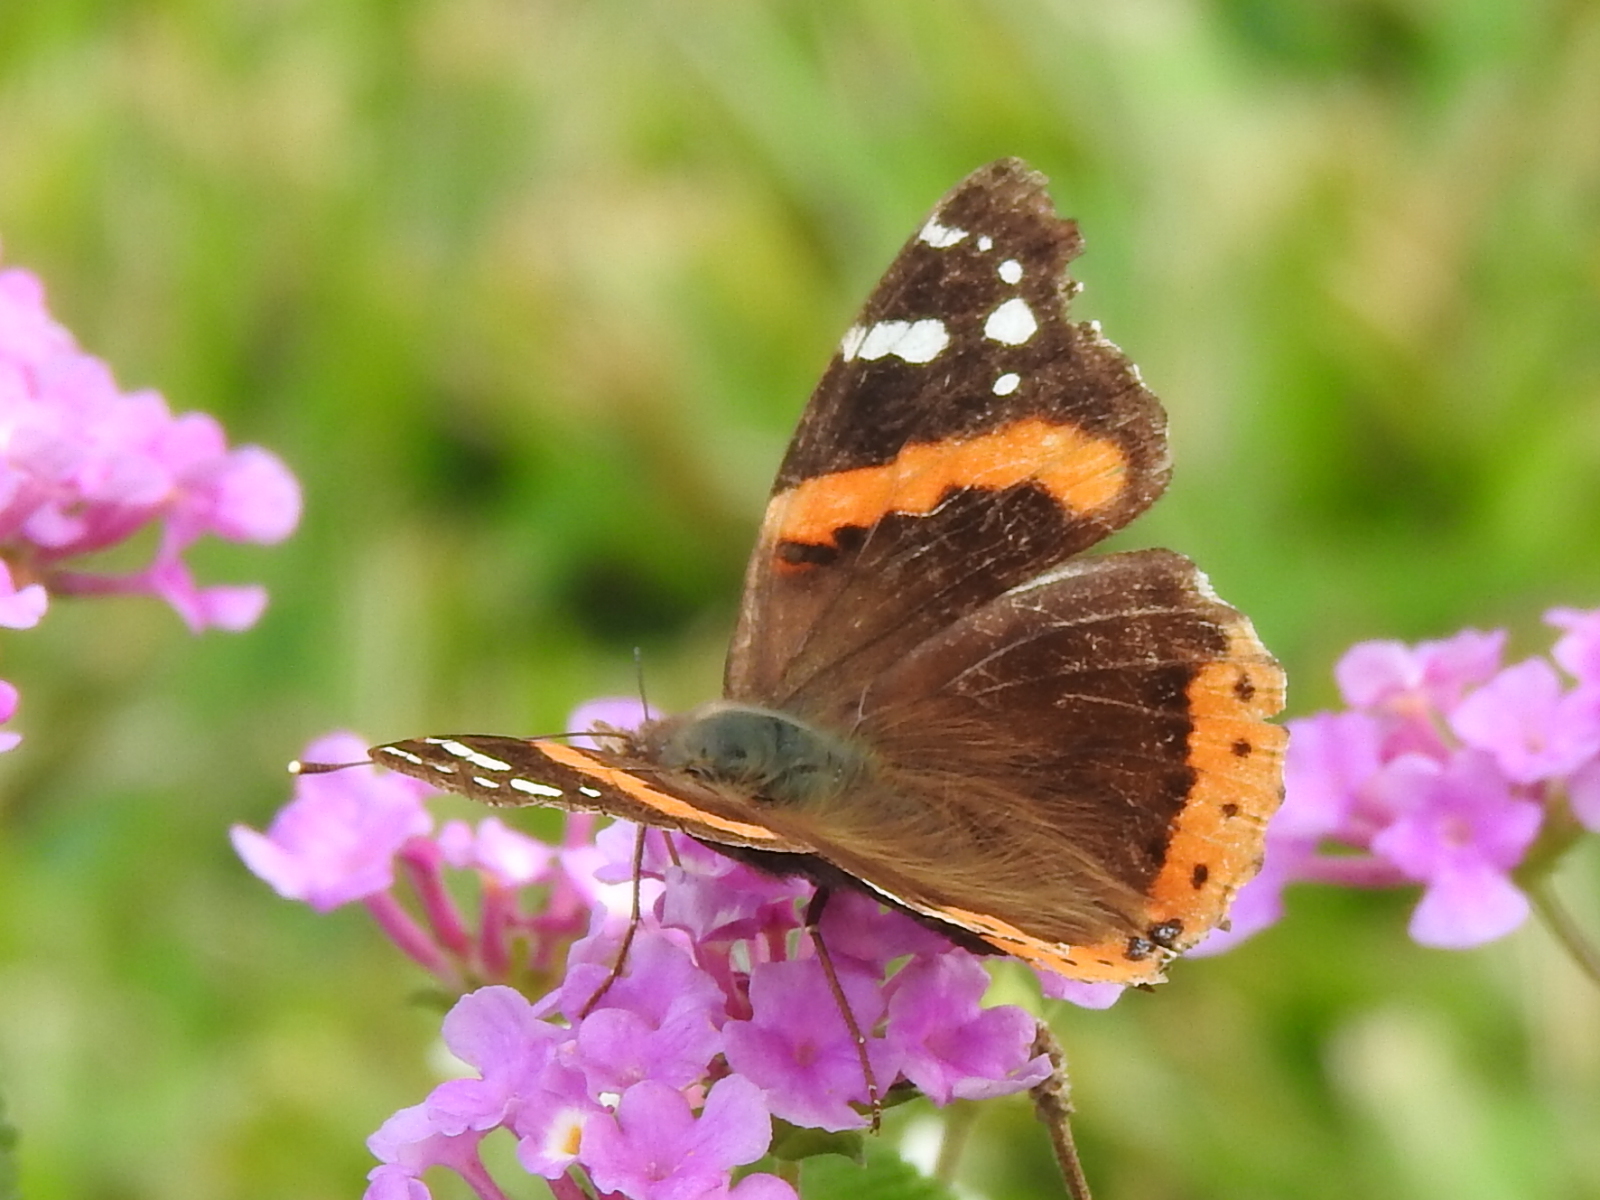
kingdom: Animalia
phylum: Arthropoda
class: Insecta
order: Lepidoptera
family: Nymphalidae
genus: Vanessa
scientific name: Vanessa atalanta
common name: Red admiral
